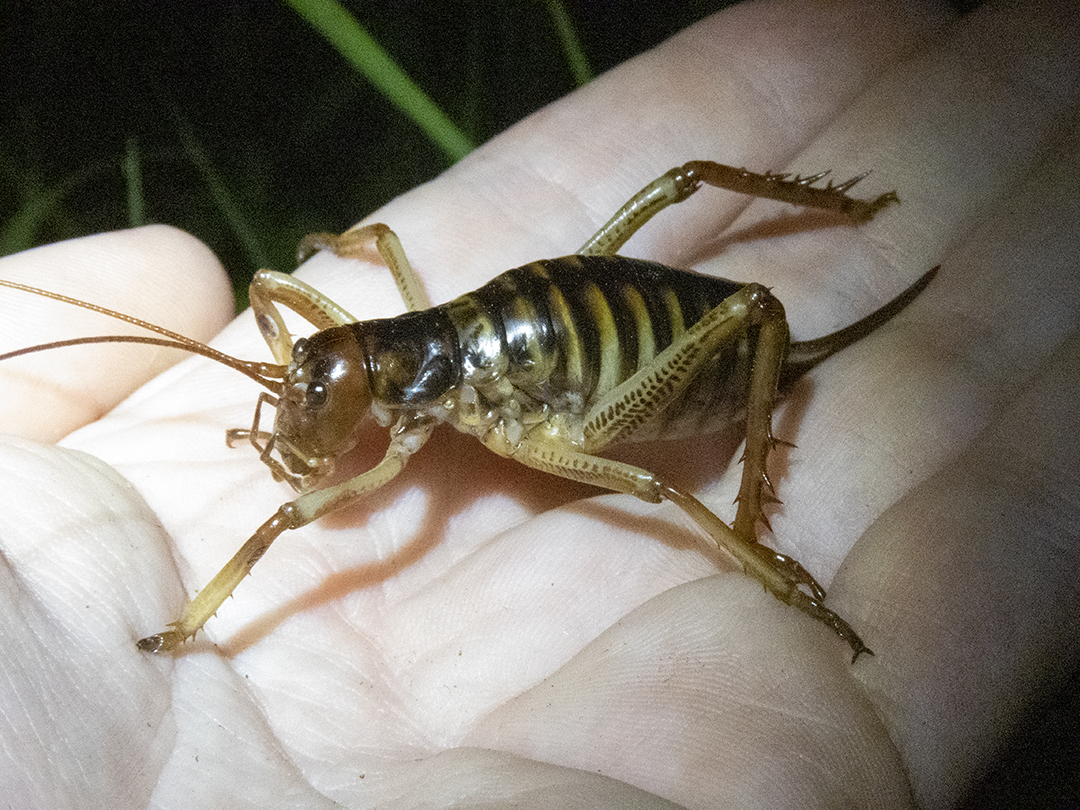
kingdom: Animalia
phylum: Arthropoda
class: Insecta
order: Orthoptera
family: Anostostomatidae
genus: Hemideina
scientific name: Hemideina crassidens
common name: Wellington tree weta
